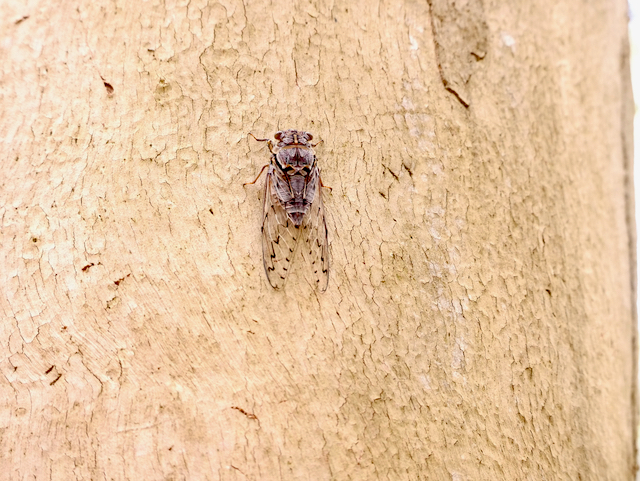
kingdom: Animalia
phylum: Arthropoda
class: Insecta
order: Hemiptera
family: Cicadidae
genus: Henicopsaltria
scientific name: Henicopsaltria eydouxii
